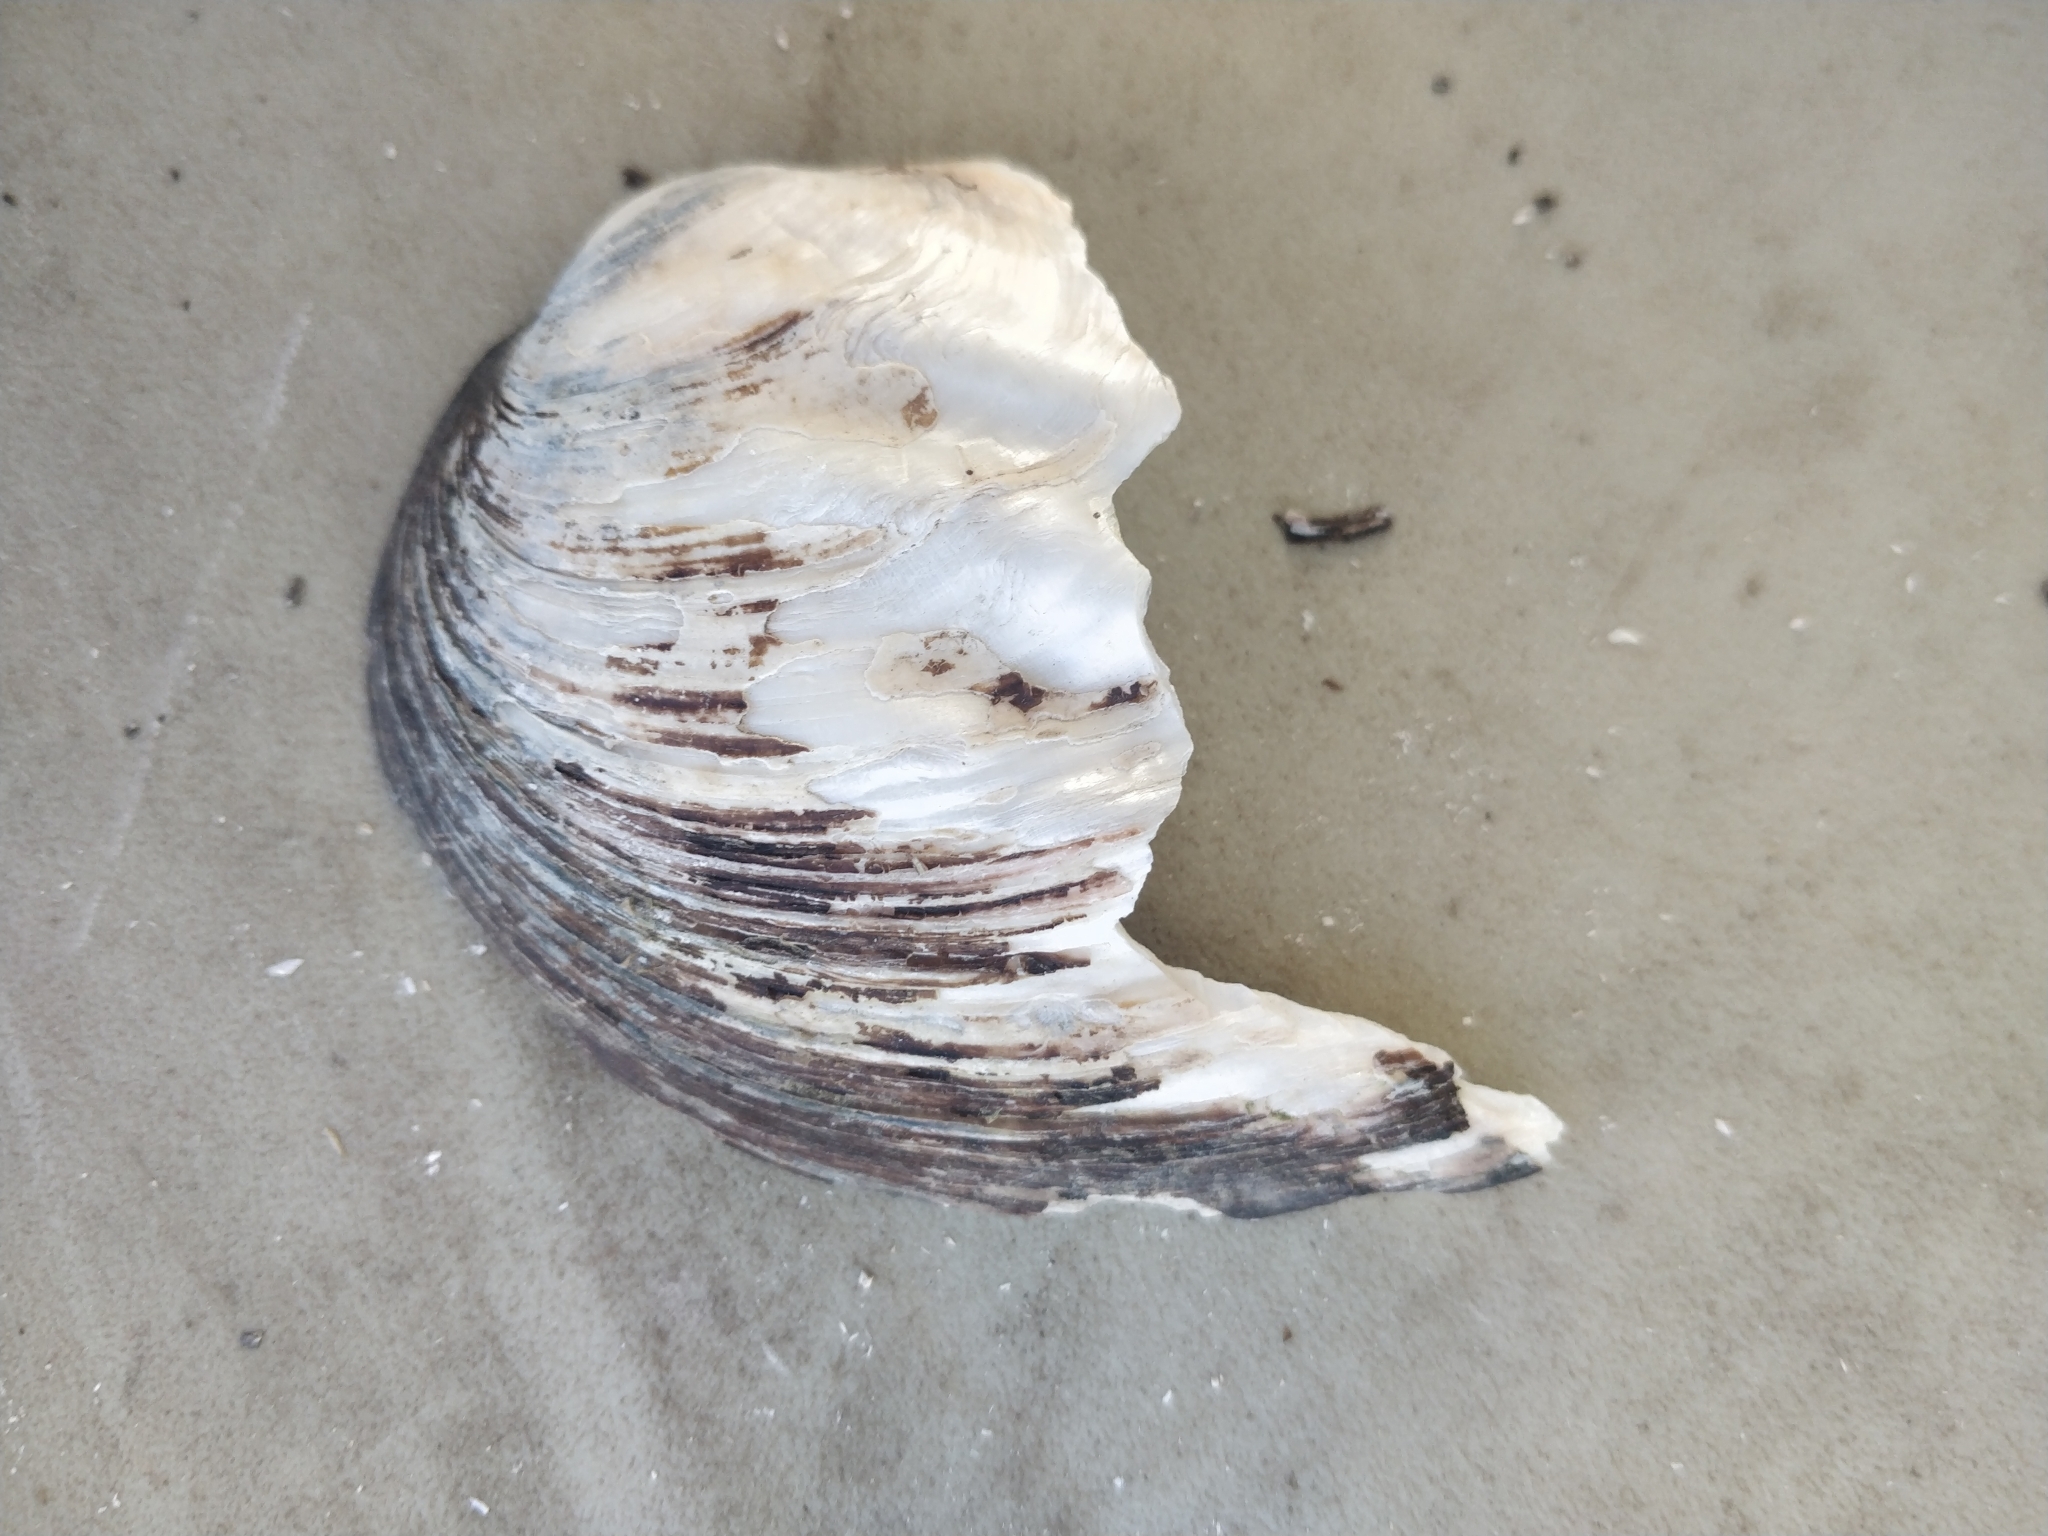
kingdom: Animalia
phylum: Mollusca
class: Bivalvia
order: Unionida
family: Unionidae
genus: Amblema
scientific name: Amblema plicata
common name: Threeridge
